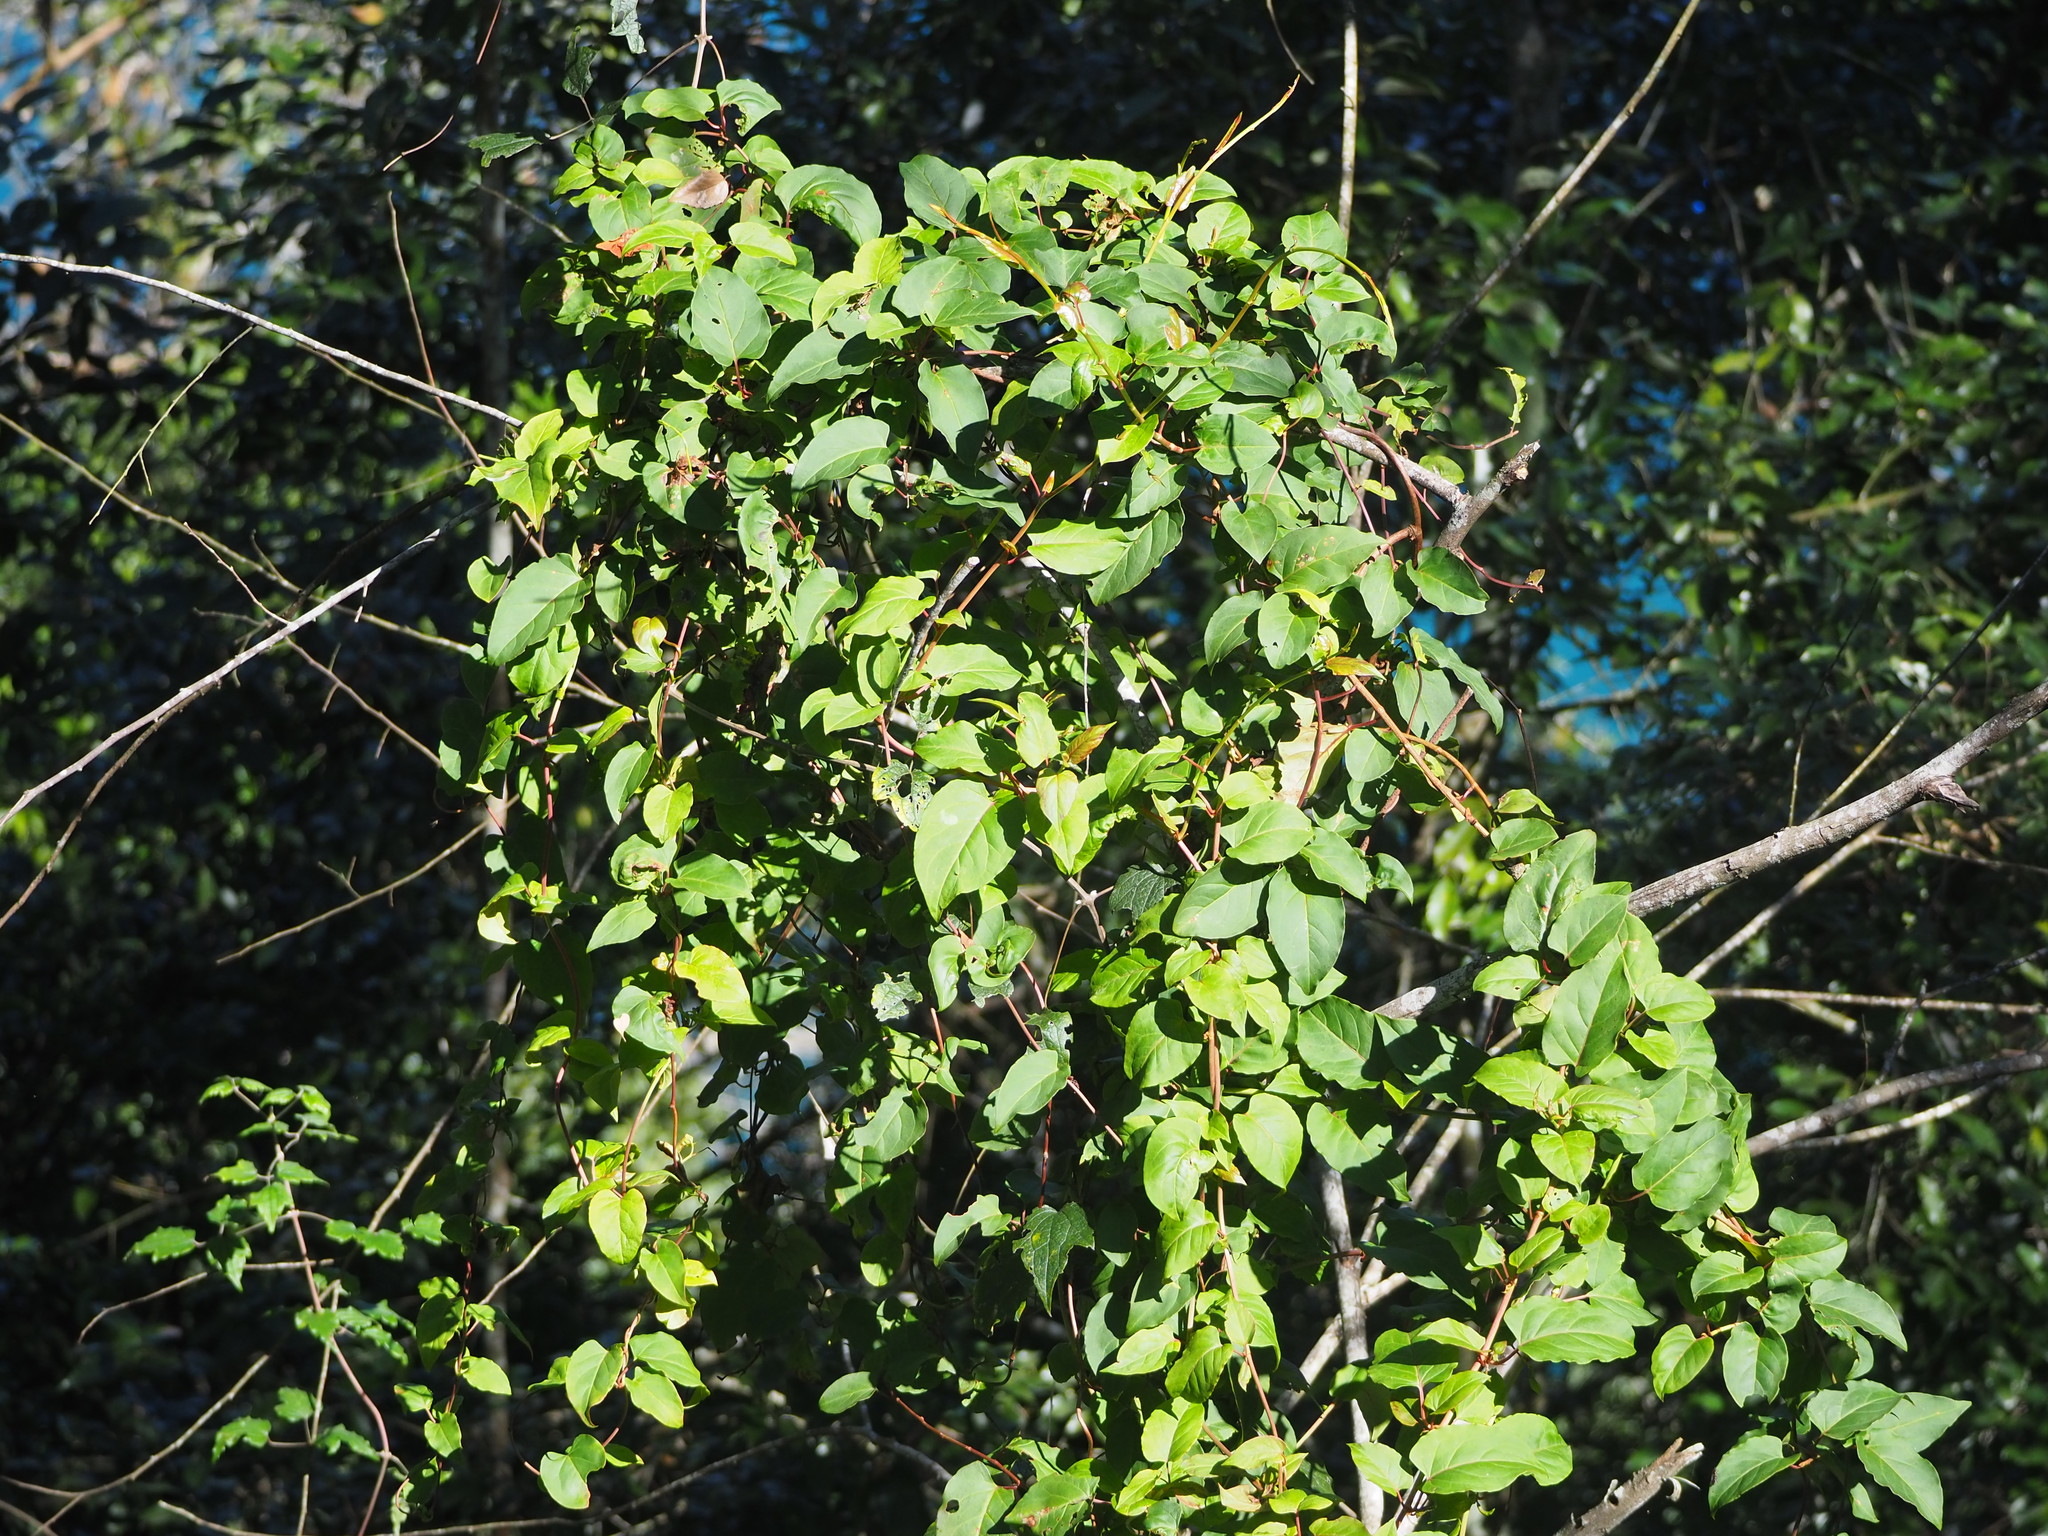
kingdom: Plantae
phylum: Tracheophyta
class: Magnoliopsida
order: Caryophyllales
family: Polygonaceae
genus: Reynoutria
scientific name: Reynoutria multiflora
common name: Chinese fleeceflower
